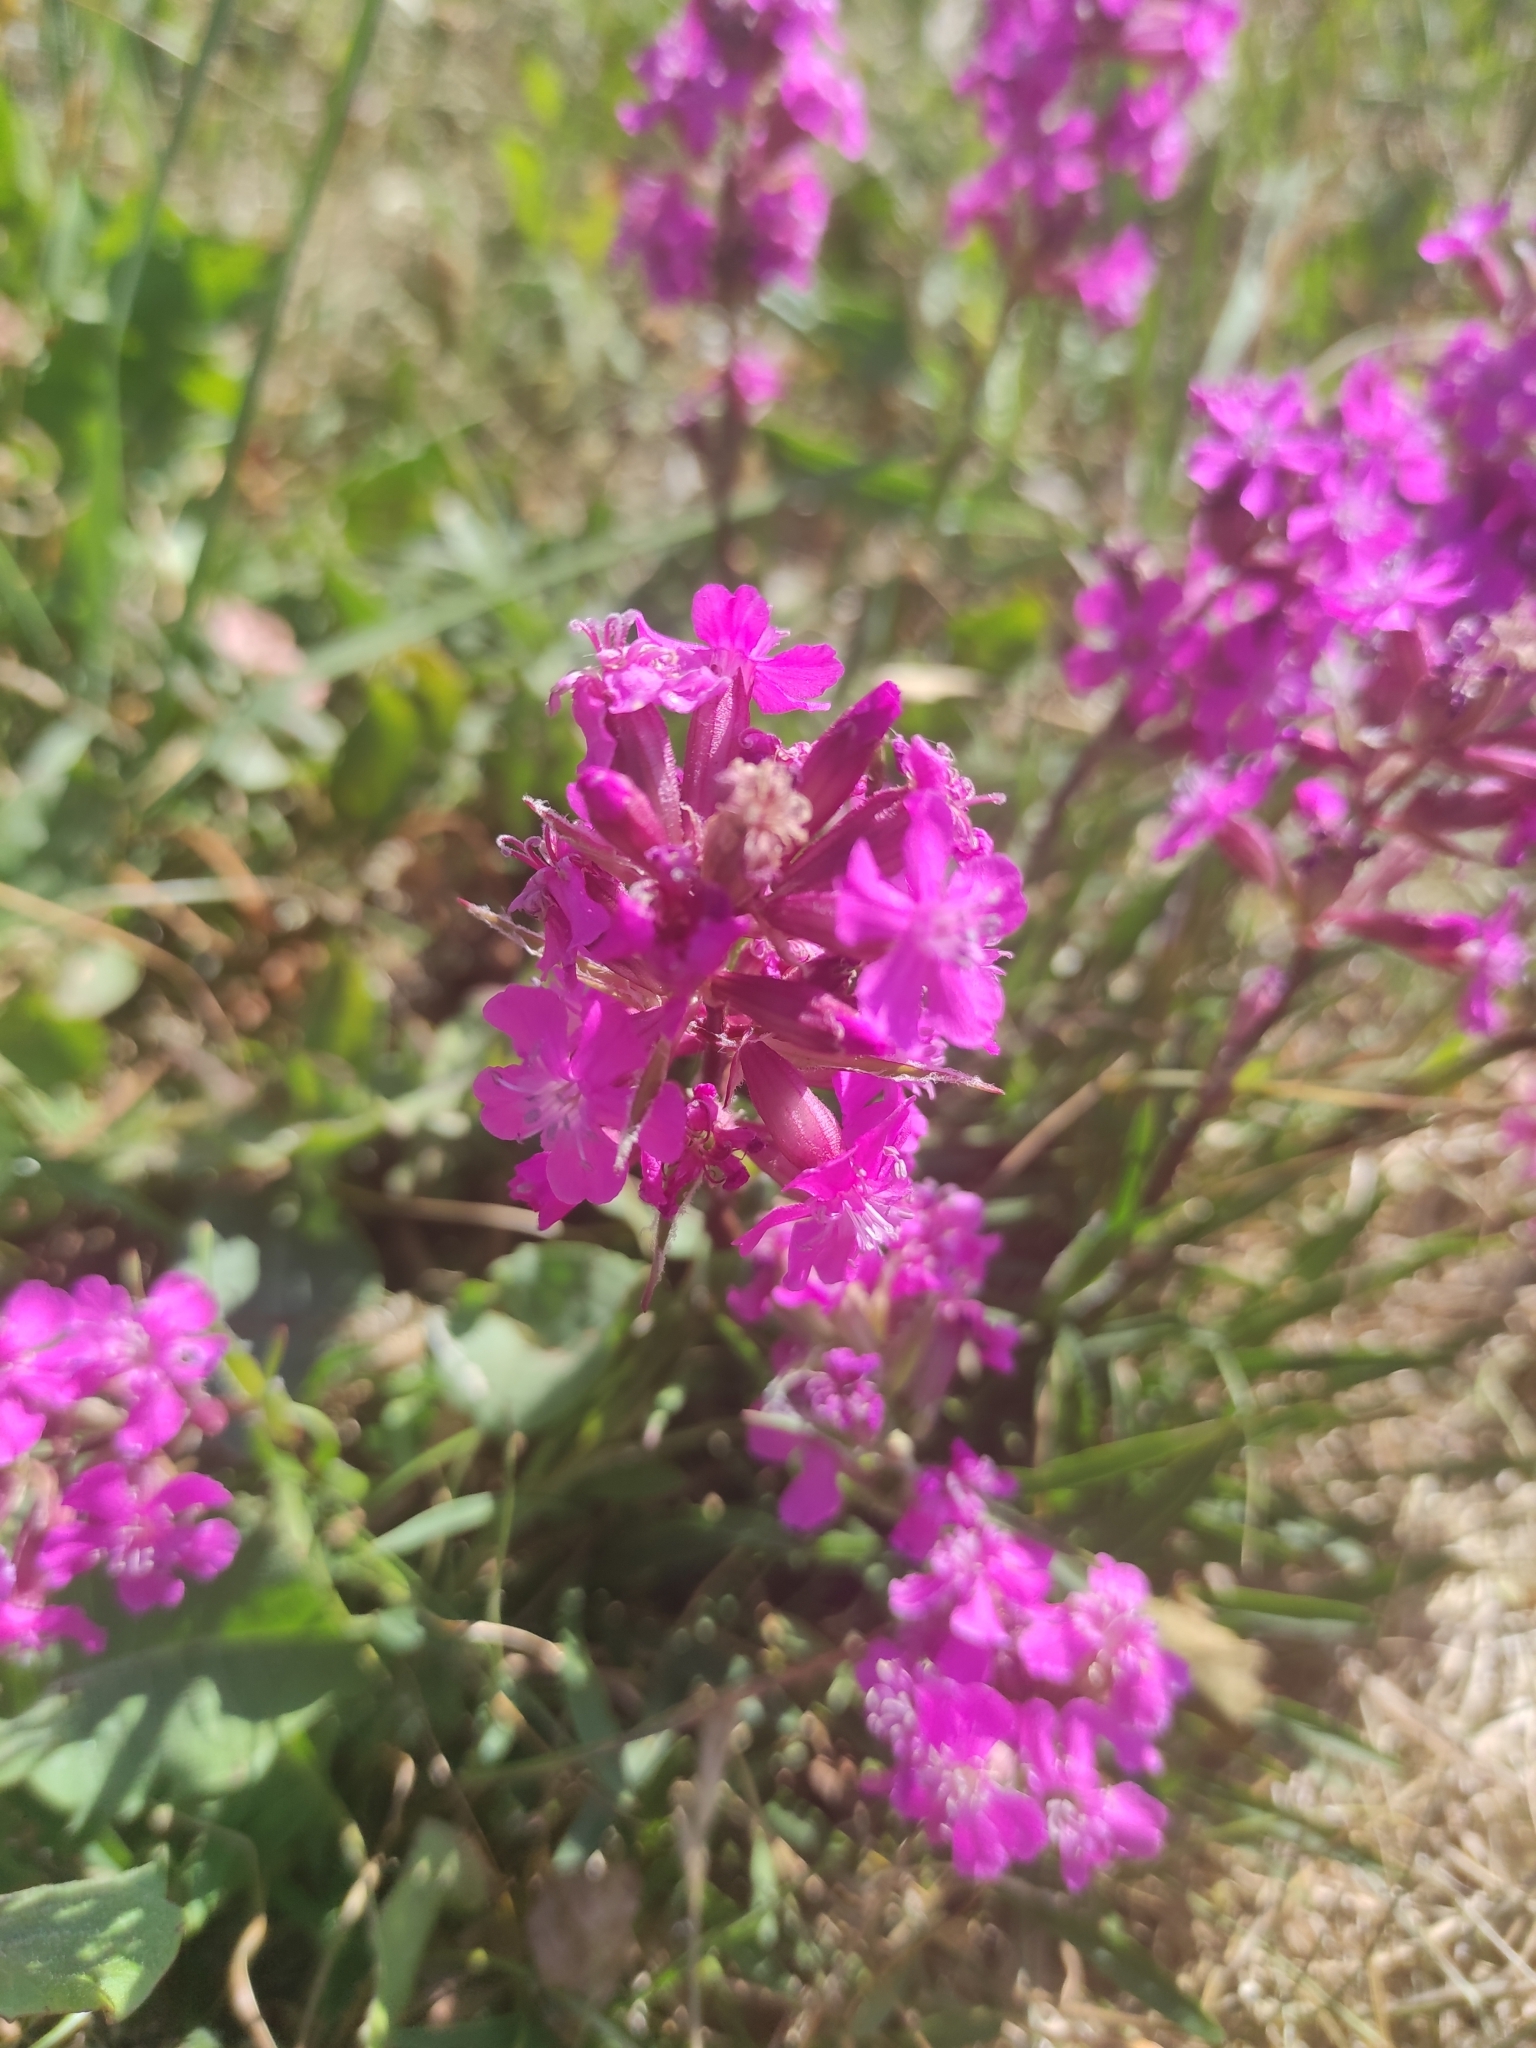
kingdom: Plantae
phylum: Tracheophyta
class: Magnoliopsida
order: Caryophyllales
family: Caryophyllaceae
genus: Viscaria
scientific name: Viscaria vulgaris
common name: Clammy campion
